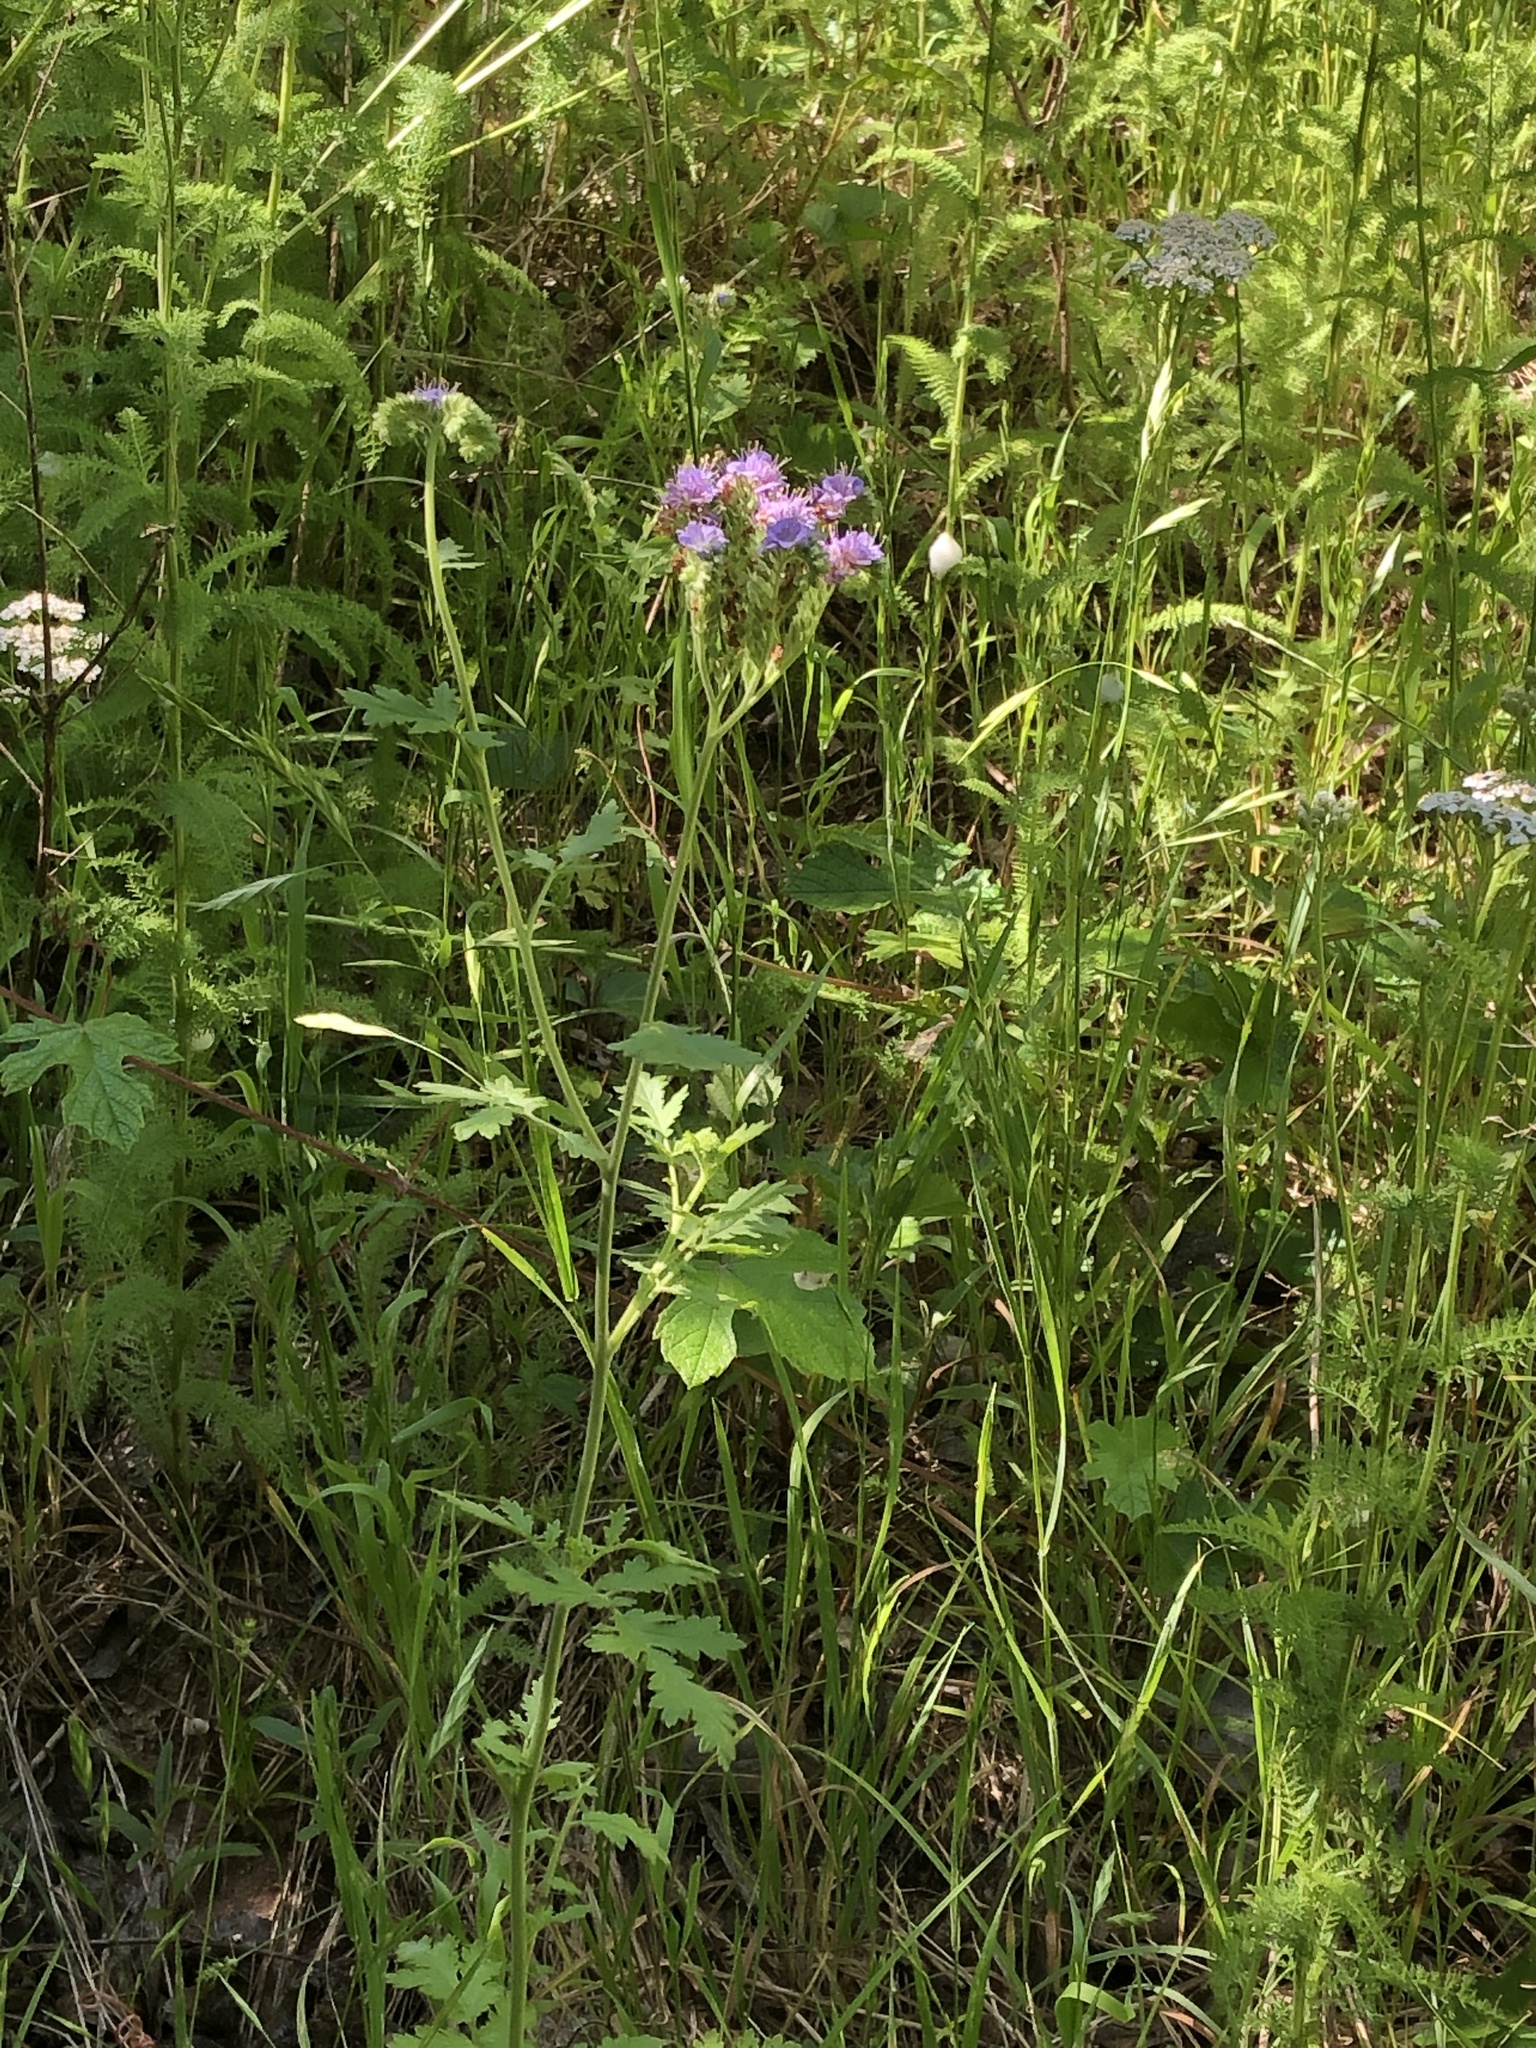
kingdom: Plantae
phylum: Tracheophyta
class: Magnoliopsida
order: Boraginales
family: Hydrophyllaceae
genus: Phacelia
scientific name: Phacelia congesta
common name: Blue curls
